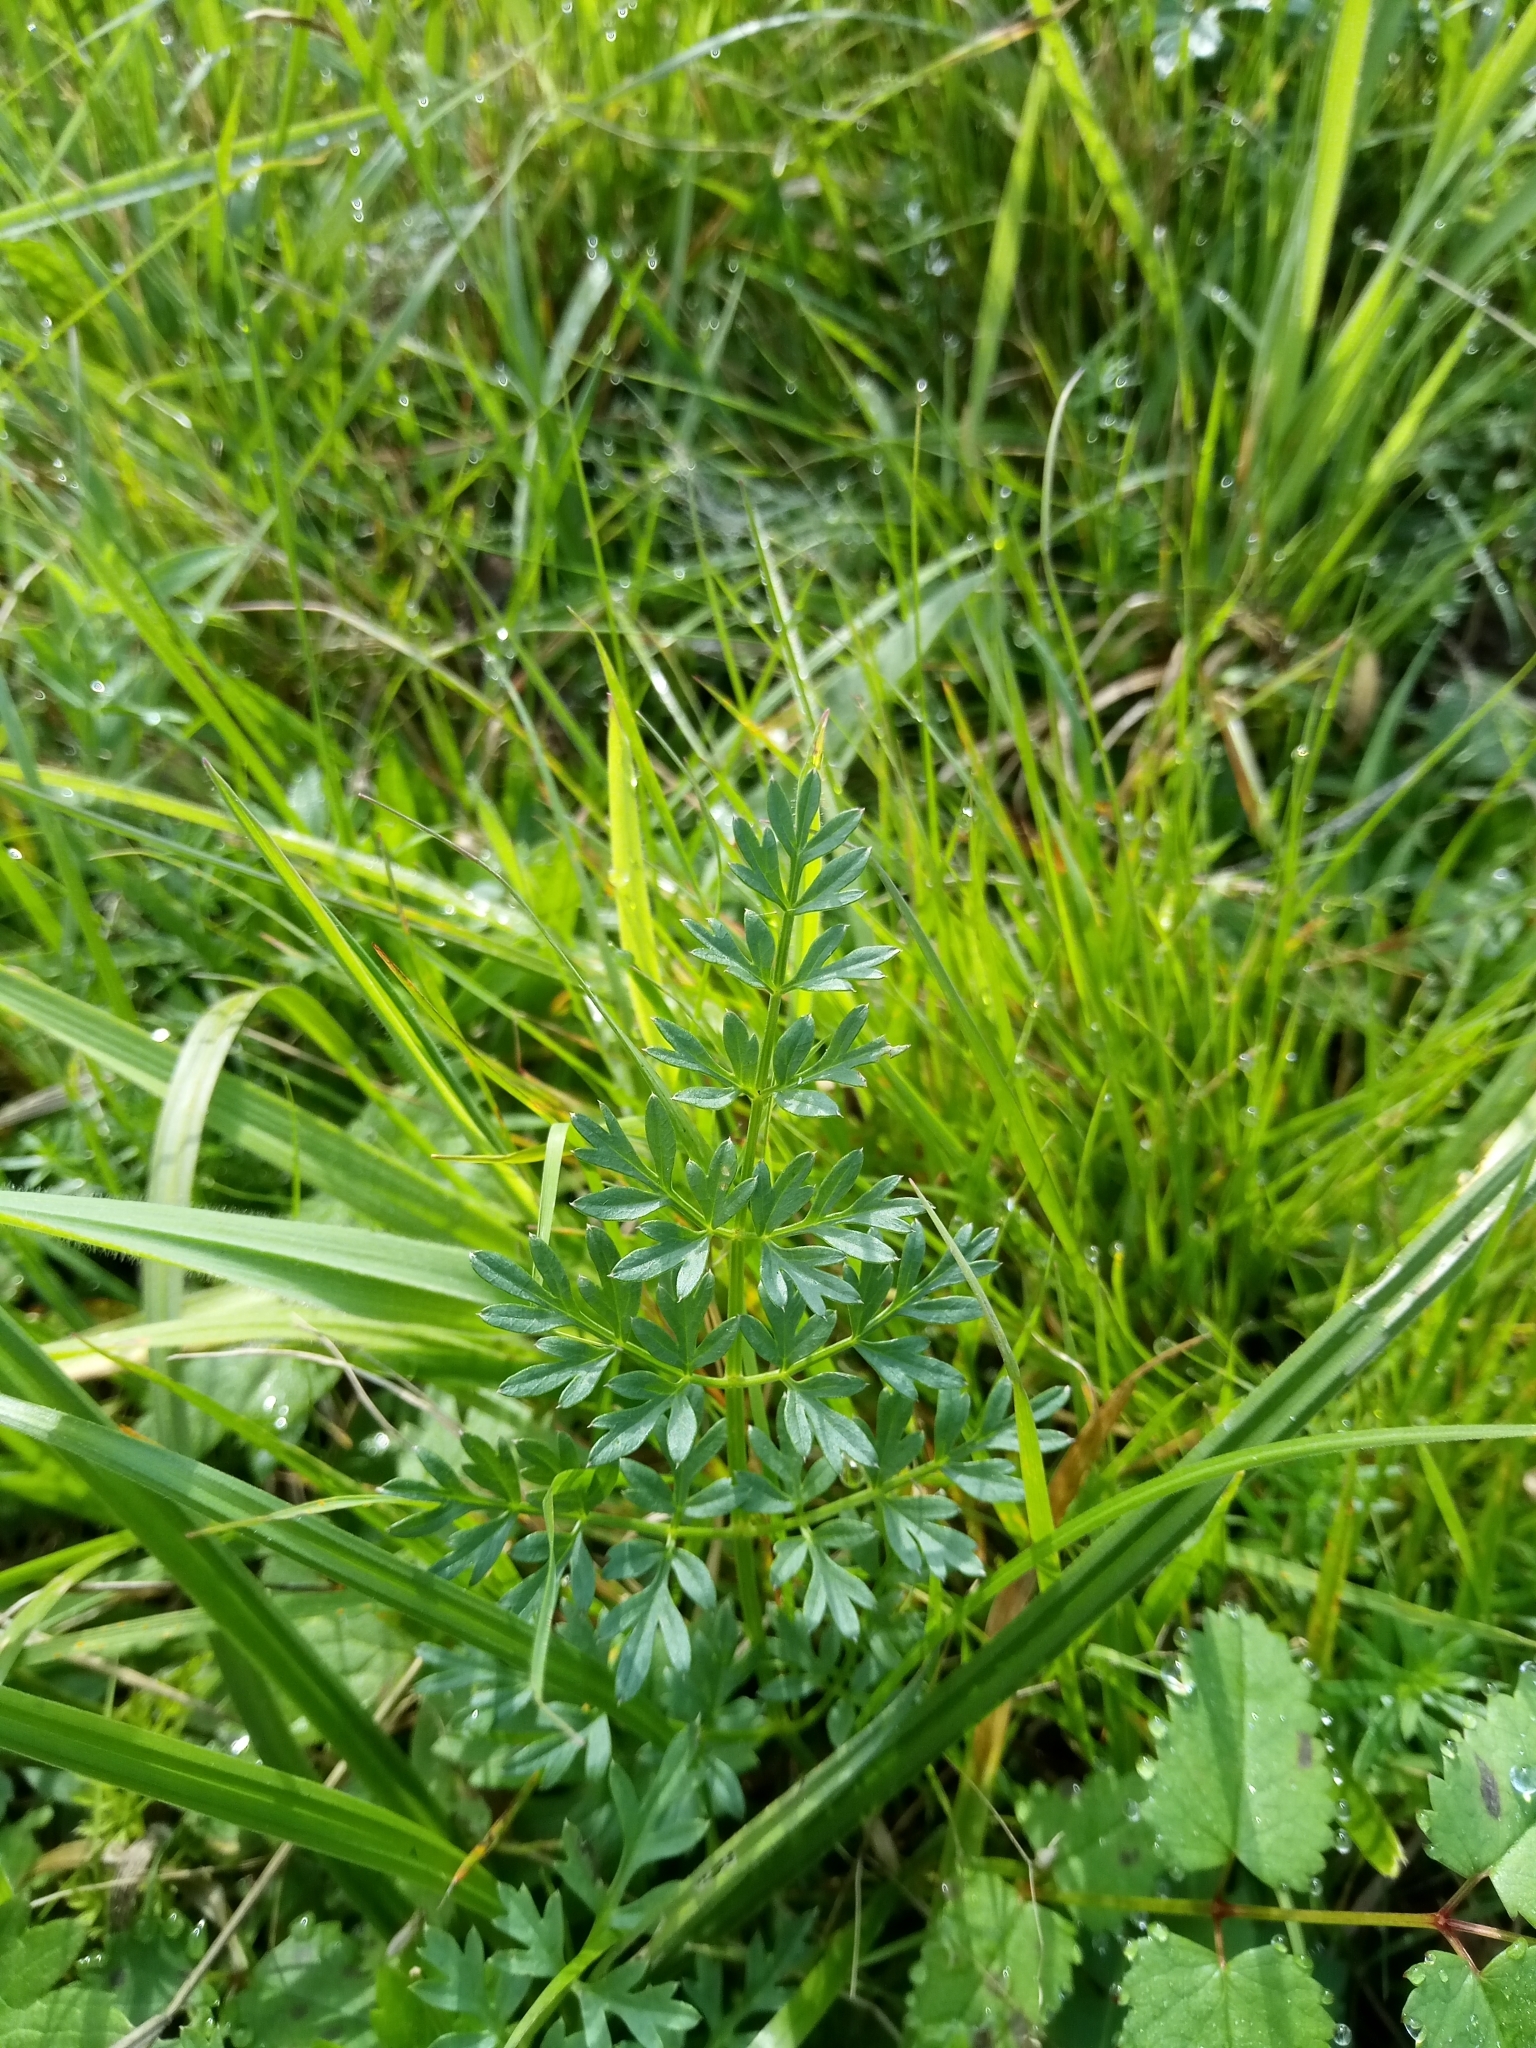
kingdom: Plantae
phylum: Tracheophyta
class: Magnoliopsida
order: Apiales
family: Apiaceae
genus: Selinum
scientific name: Selinum carvifolia
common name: Cambridge milk-parsley
